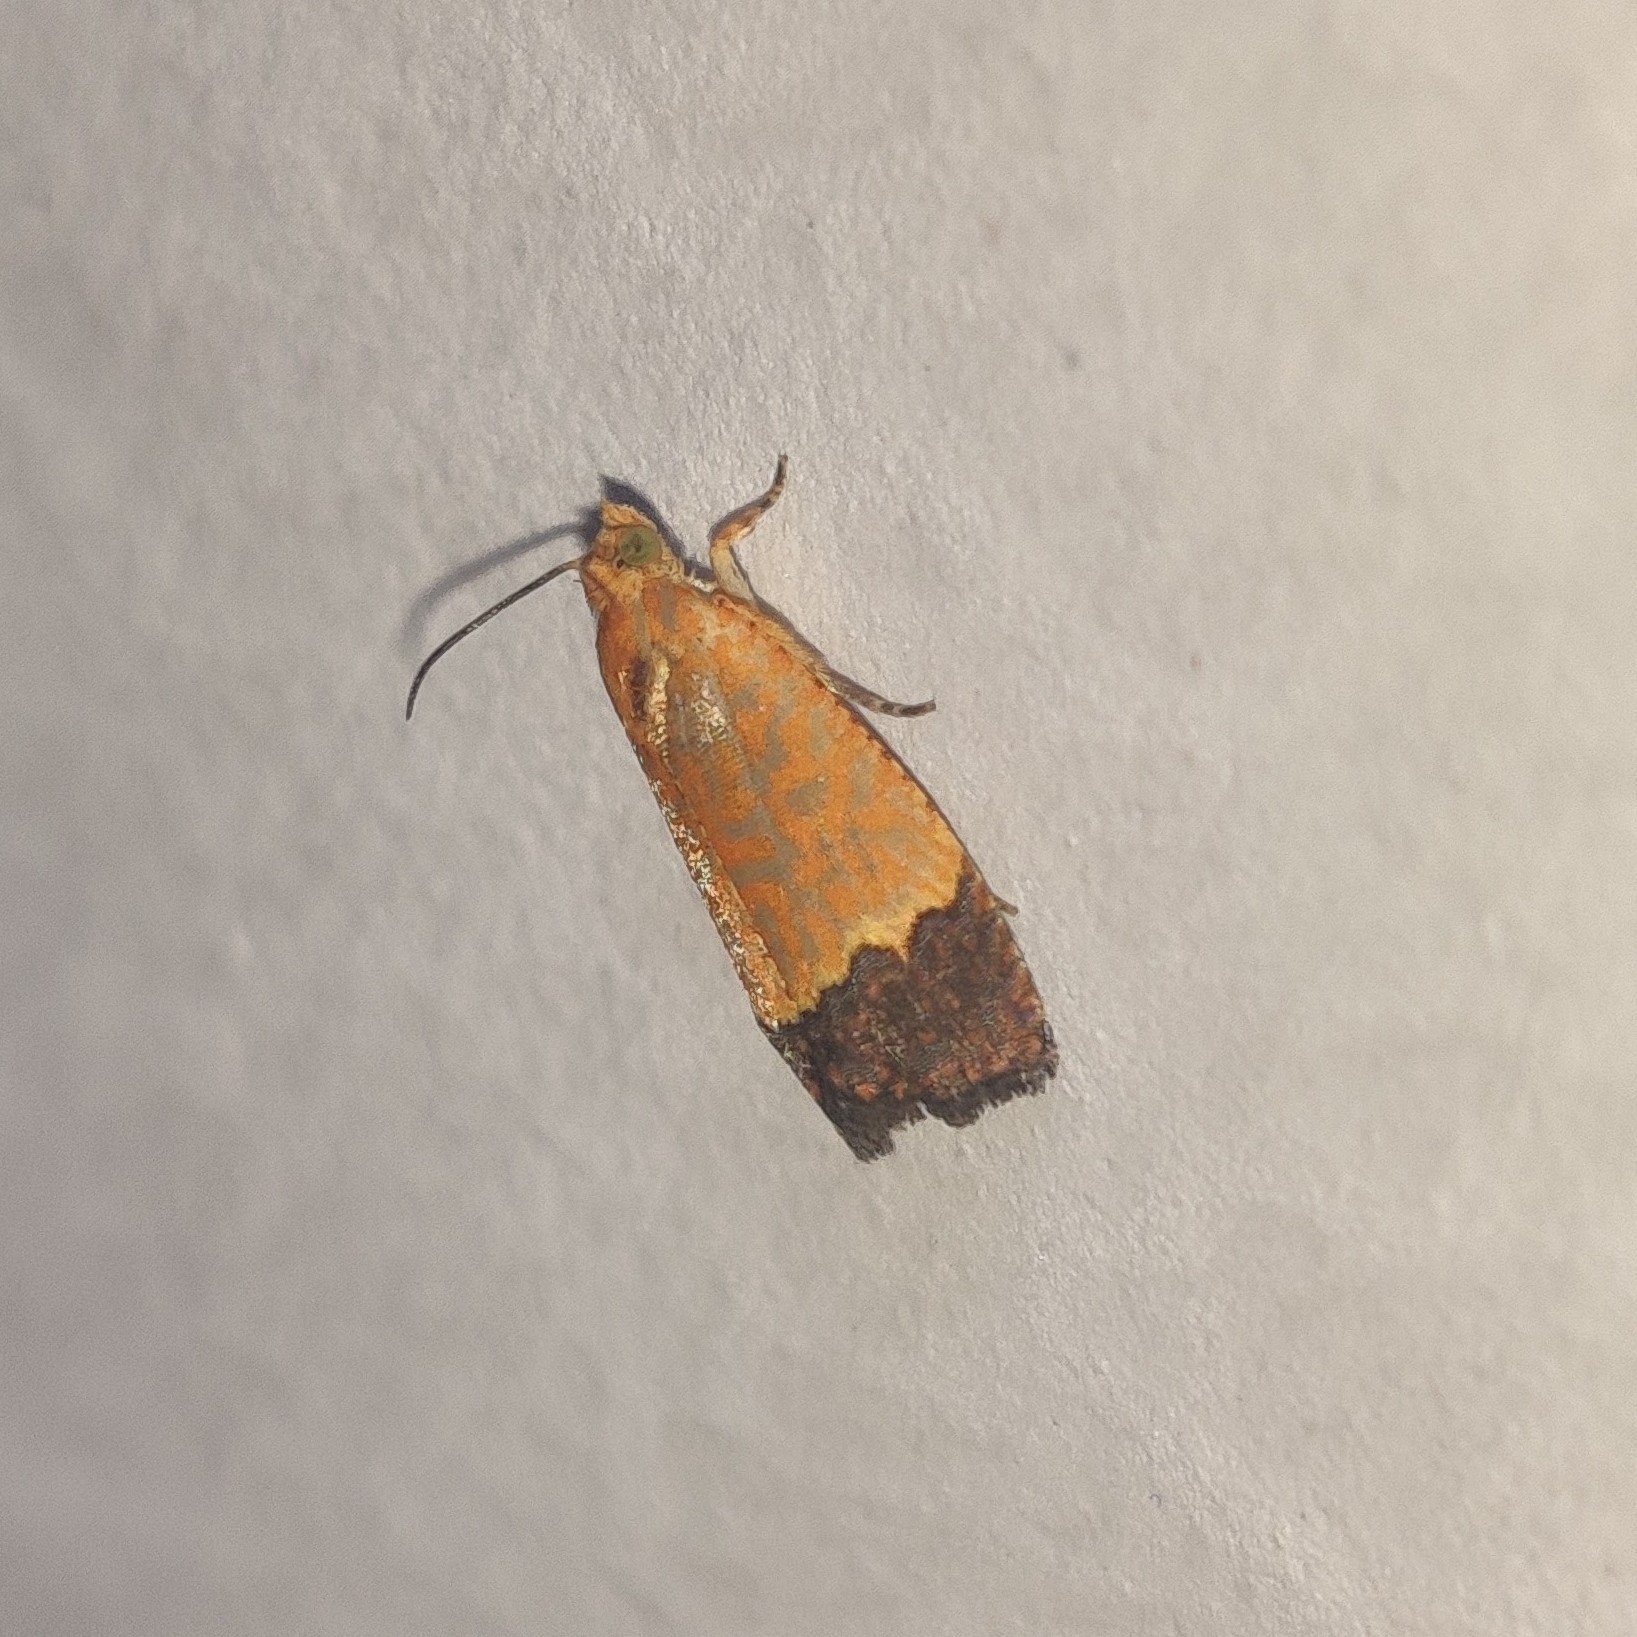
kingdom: Animalia
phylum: Arthropoda
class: Insecta
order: Lepidoptera
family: Tortricidae
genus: Loboschiza
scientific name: Loboschiza koenigiana
